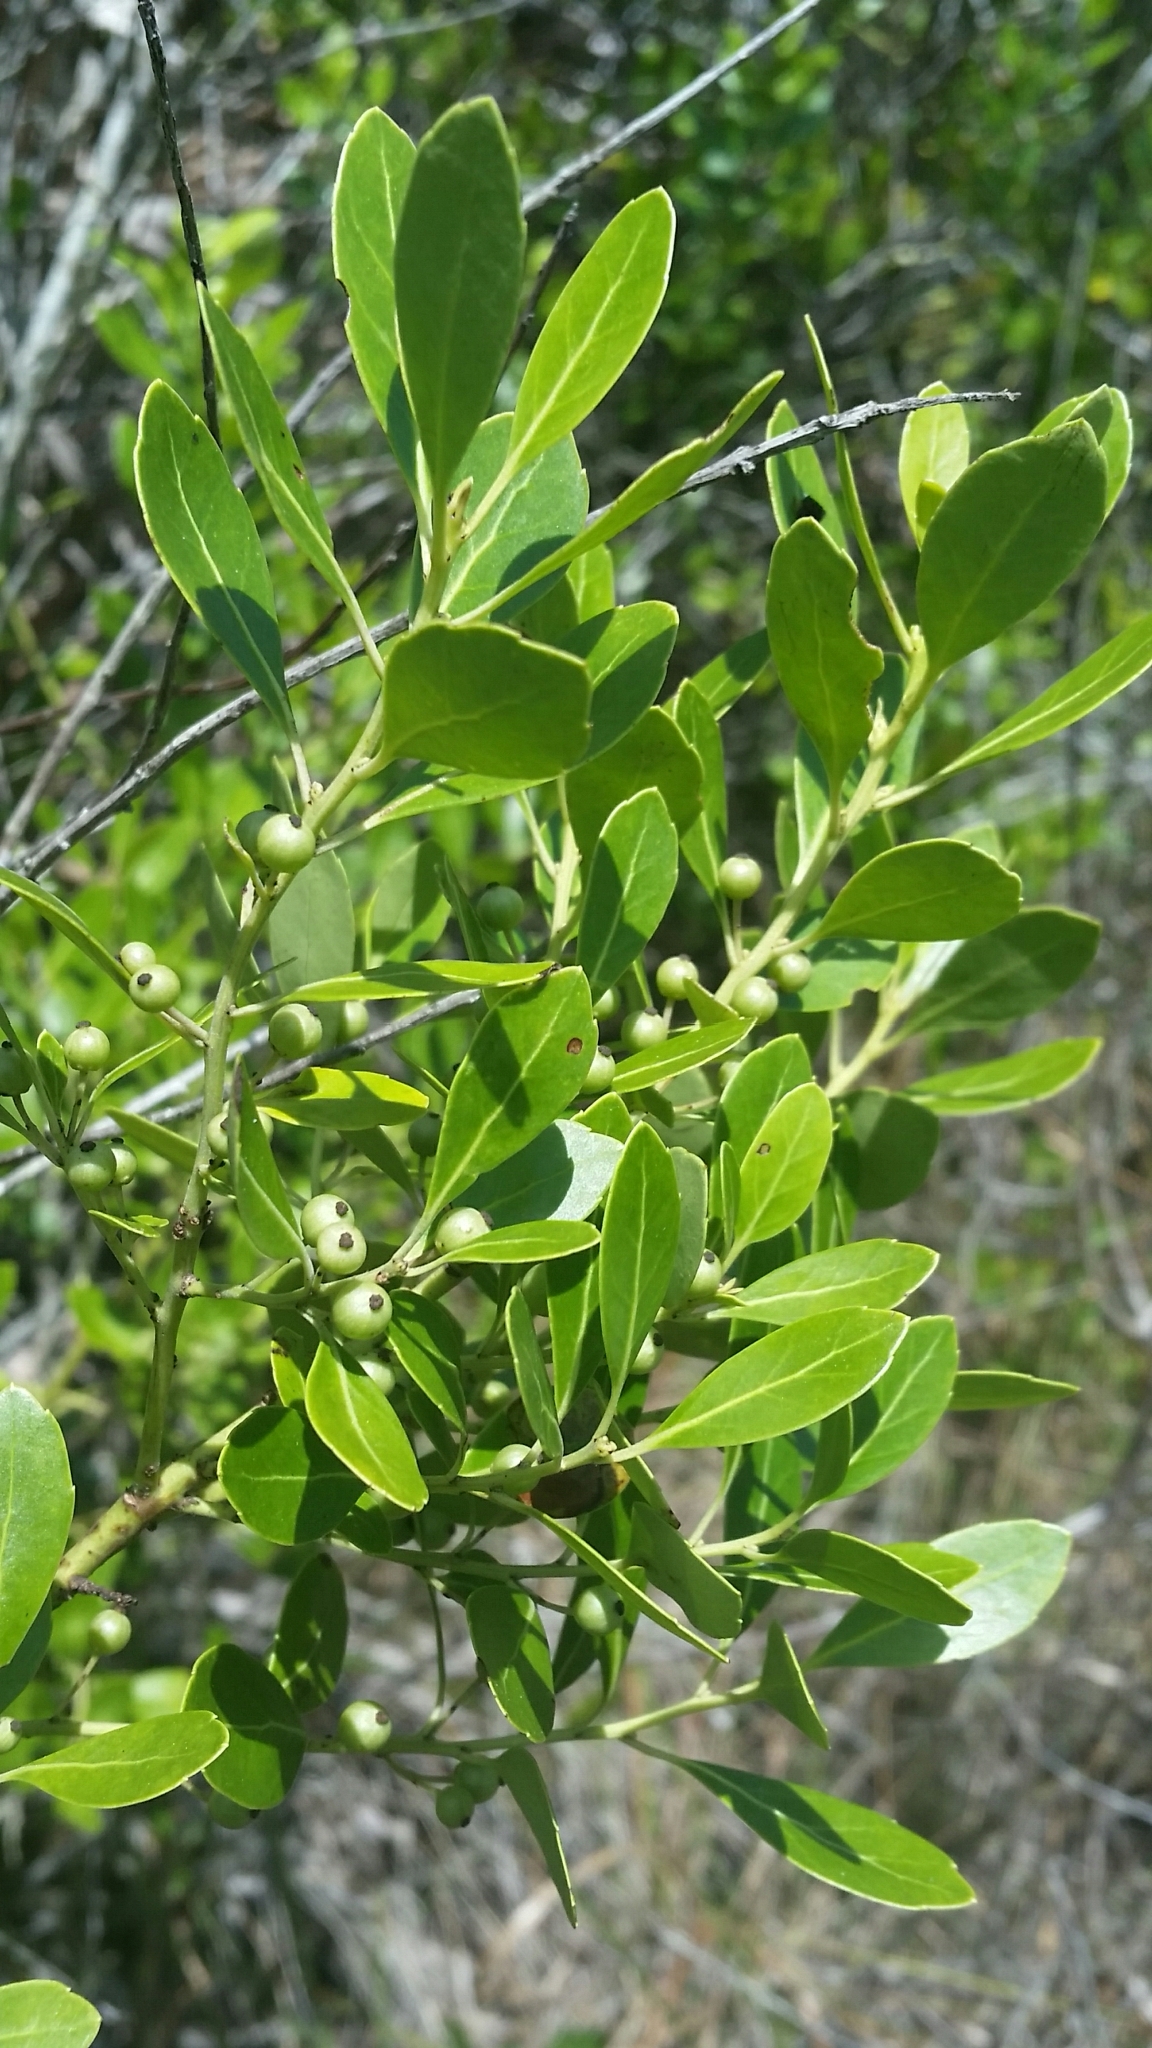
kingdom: Plantae
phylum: Tracheophyta
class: Magnoliopsida
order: Aquifoliales
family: Aquifoliaceae
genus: Ilex
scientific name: Ilex glabra
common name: Bitter gallberry
